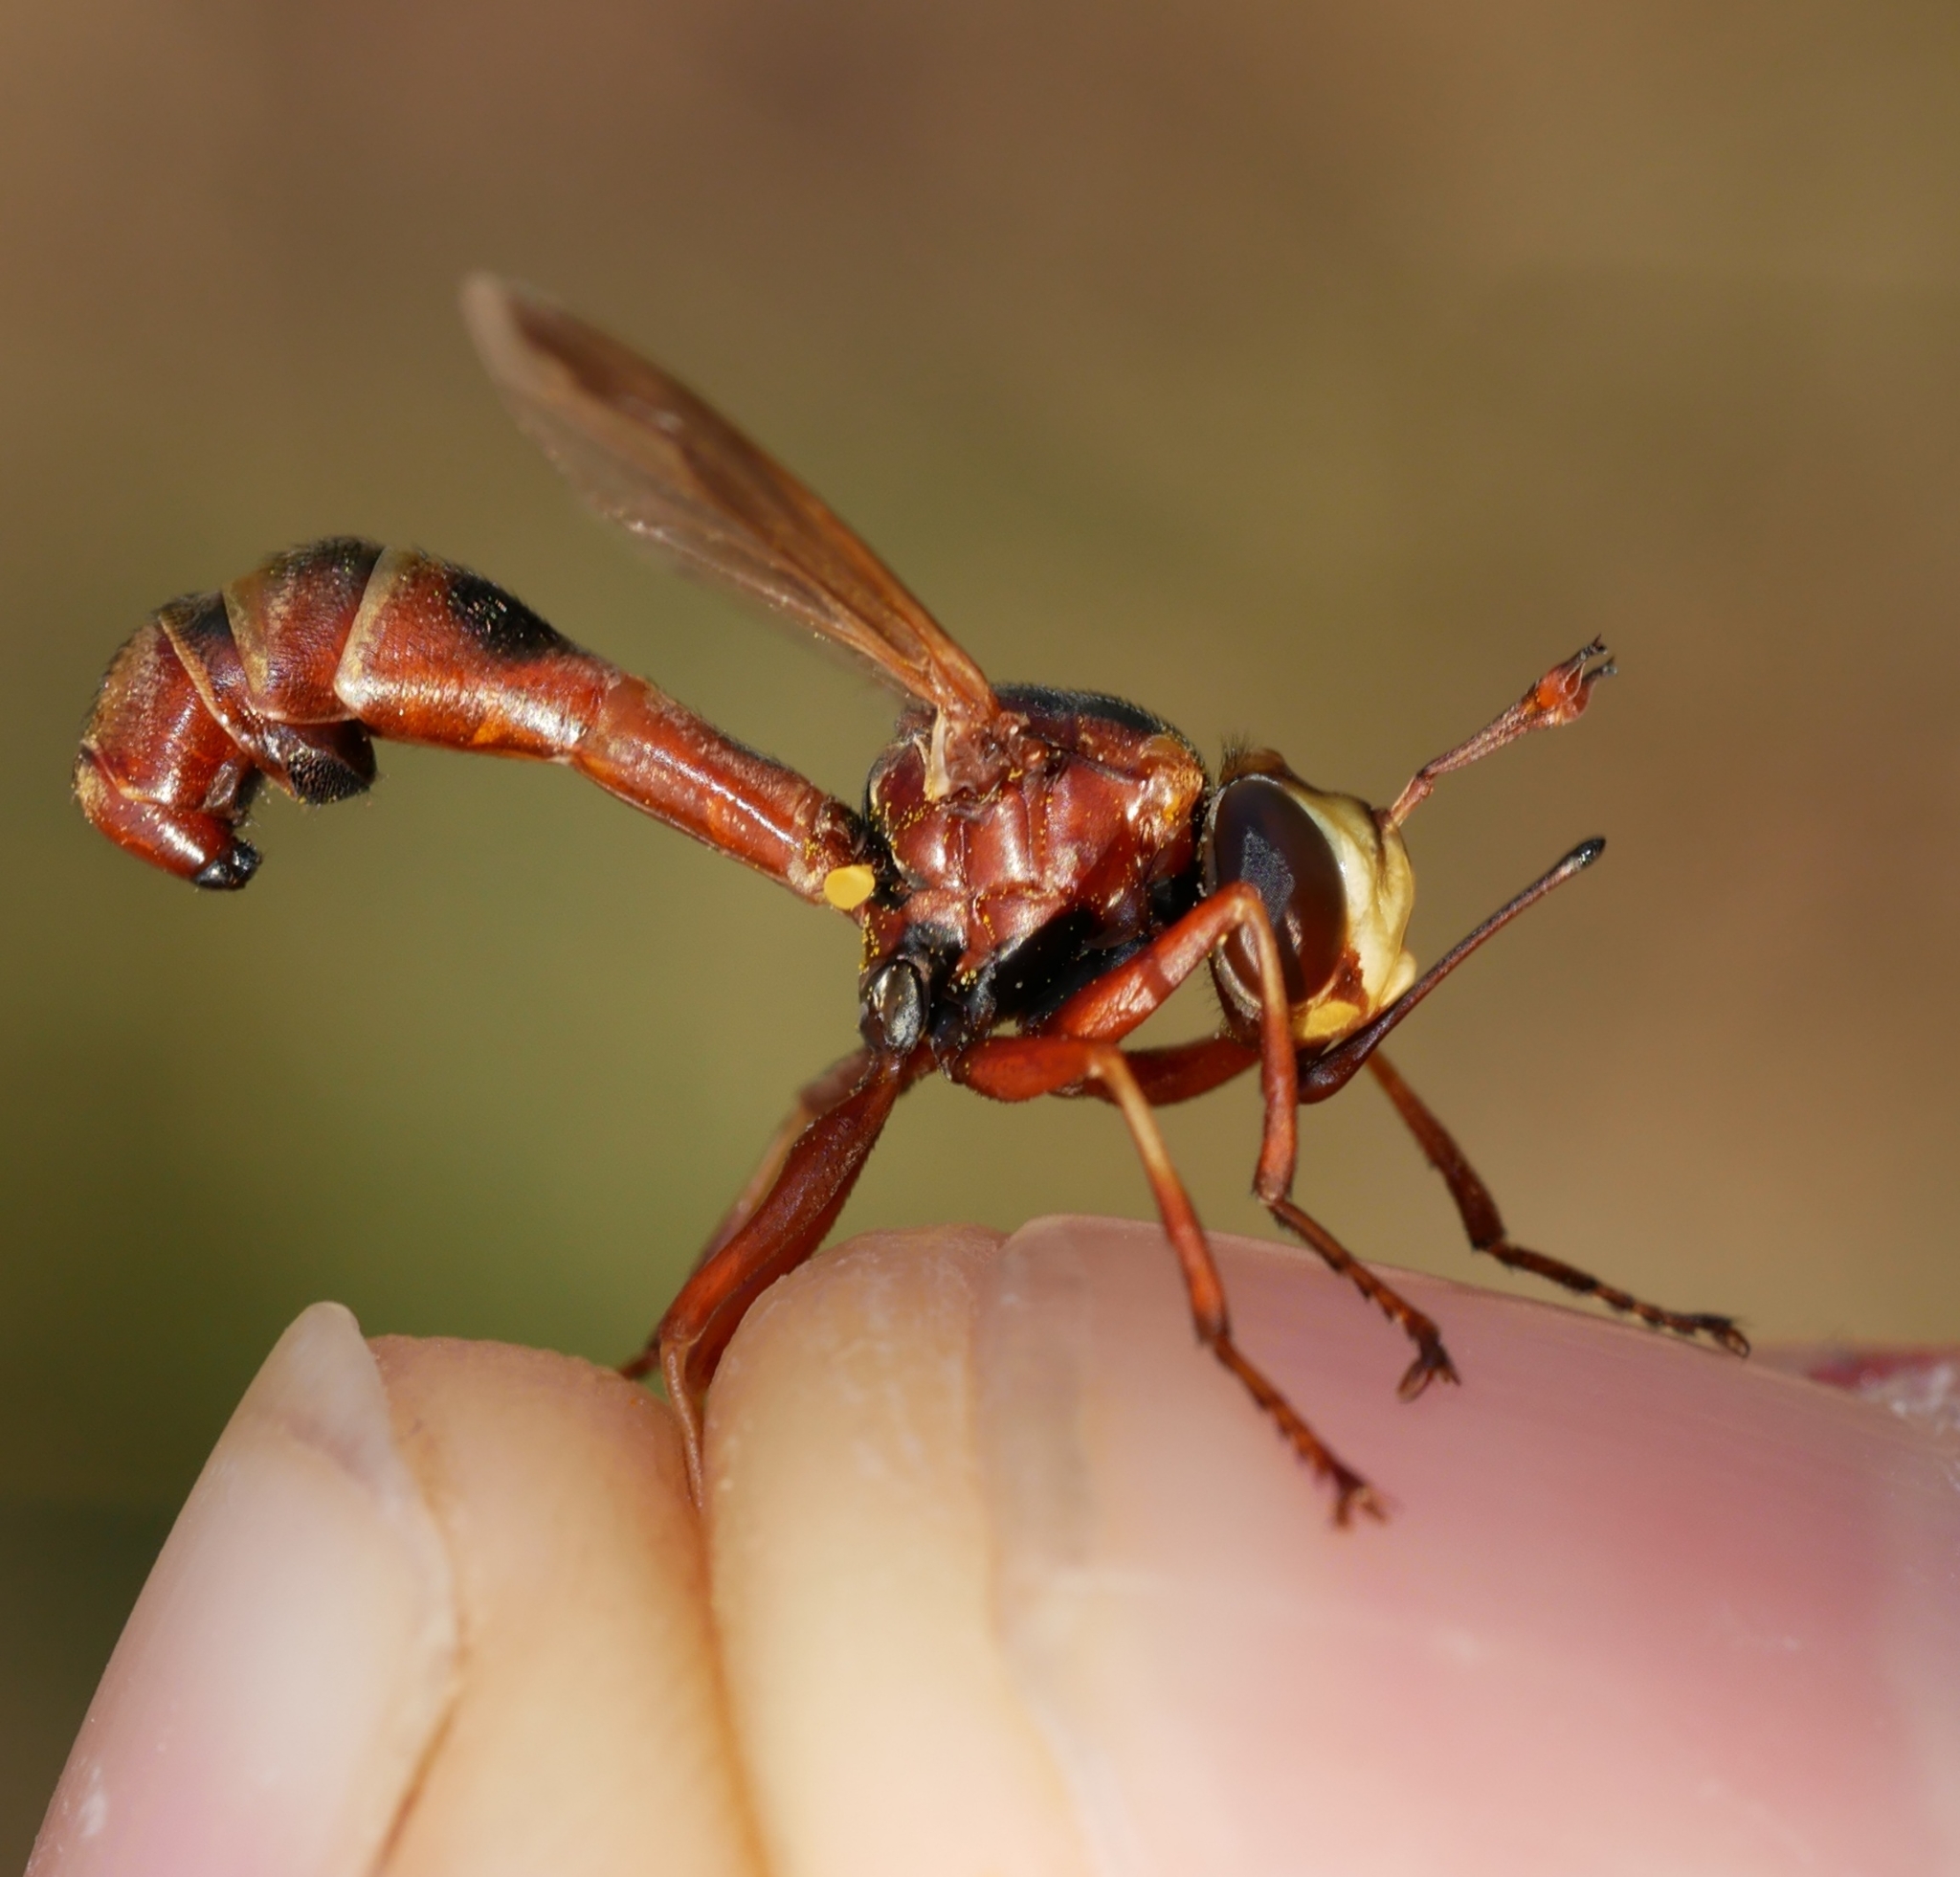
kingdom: Animalia
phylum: Arthropoda
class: Insecta
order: Diptera
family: Conopidae
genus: Physocephala
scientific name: Physocephala texana
